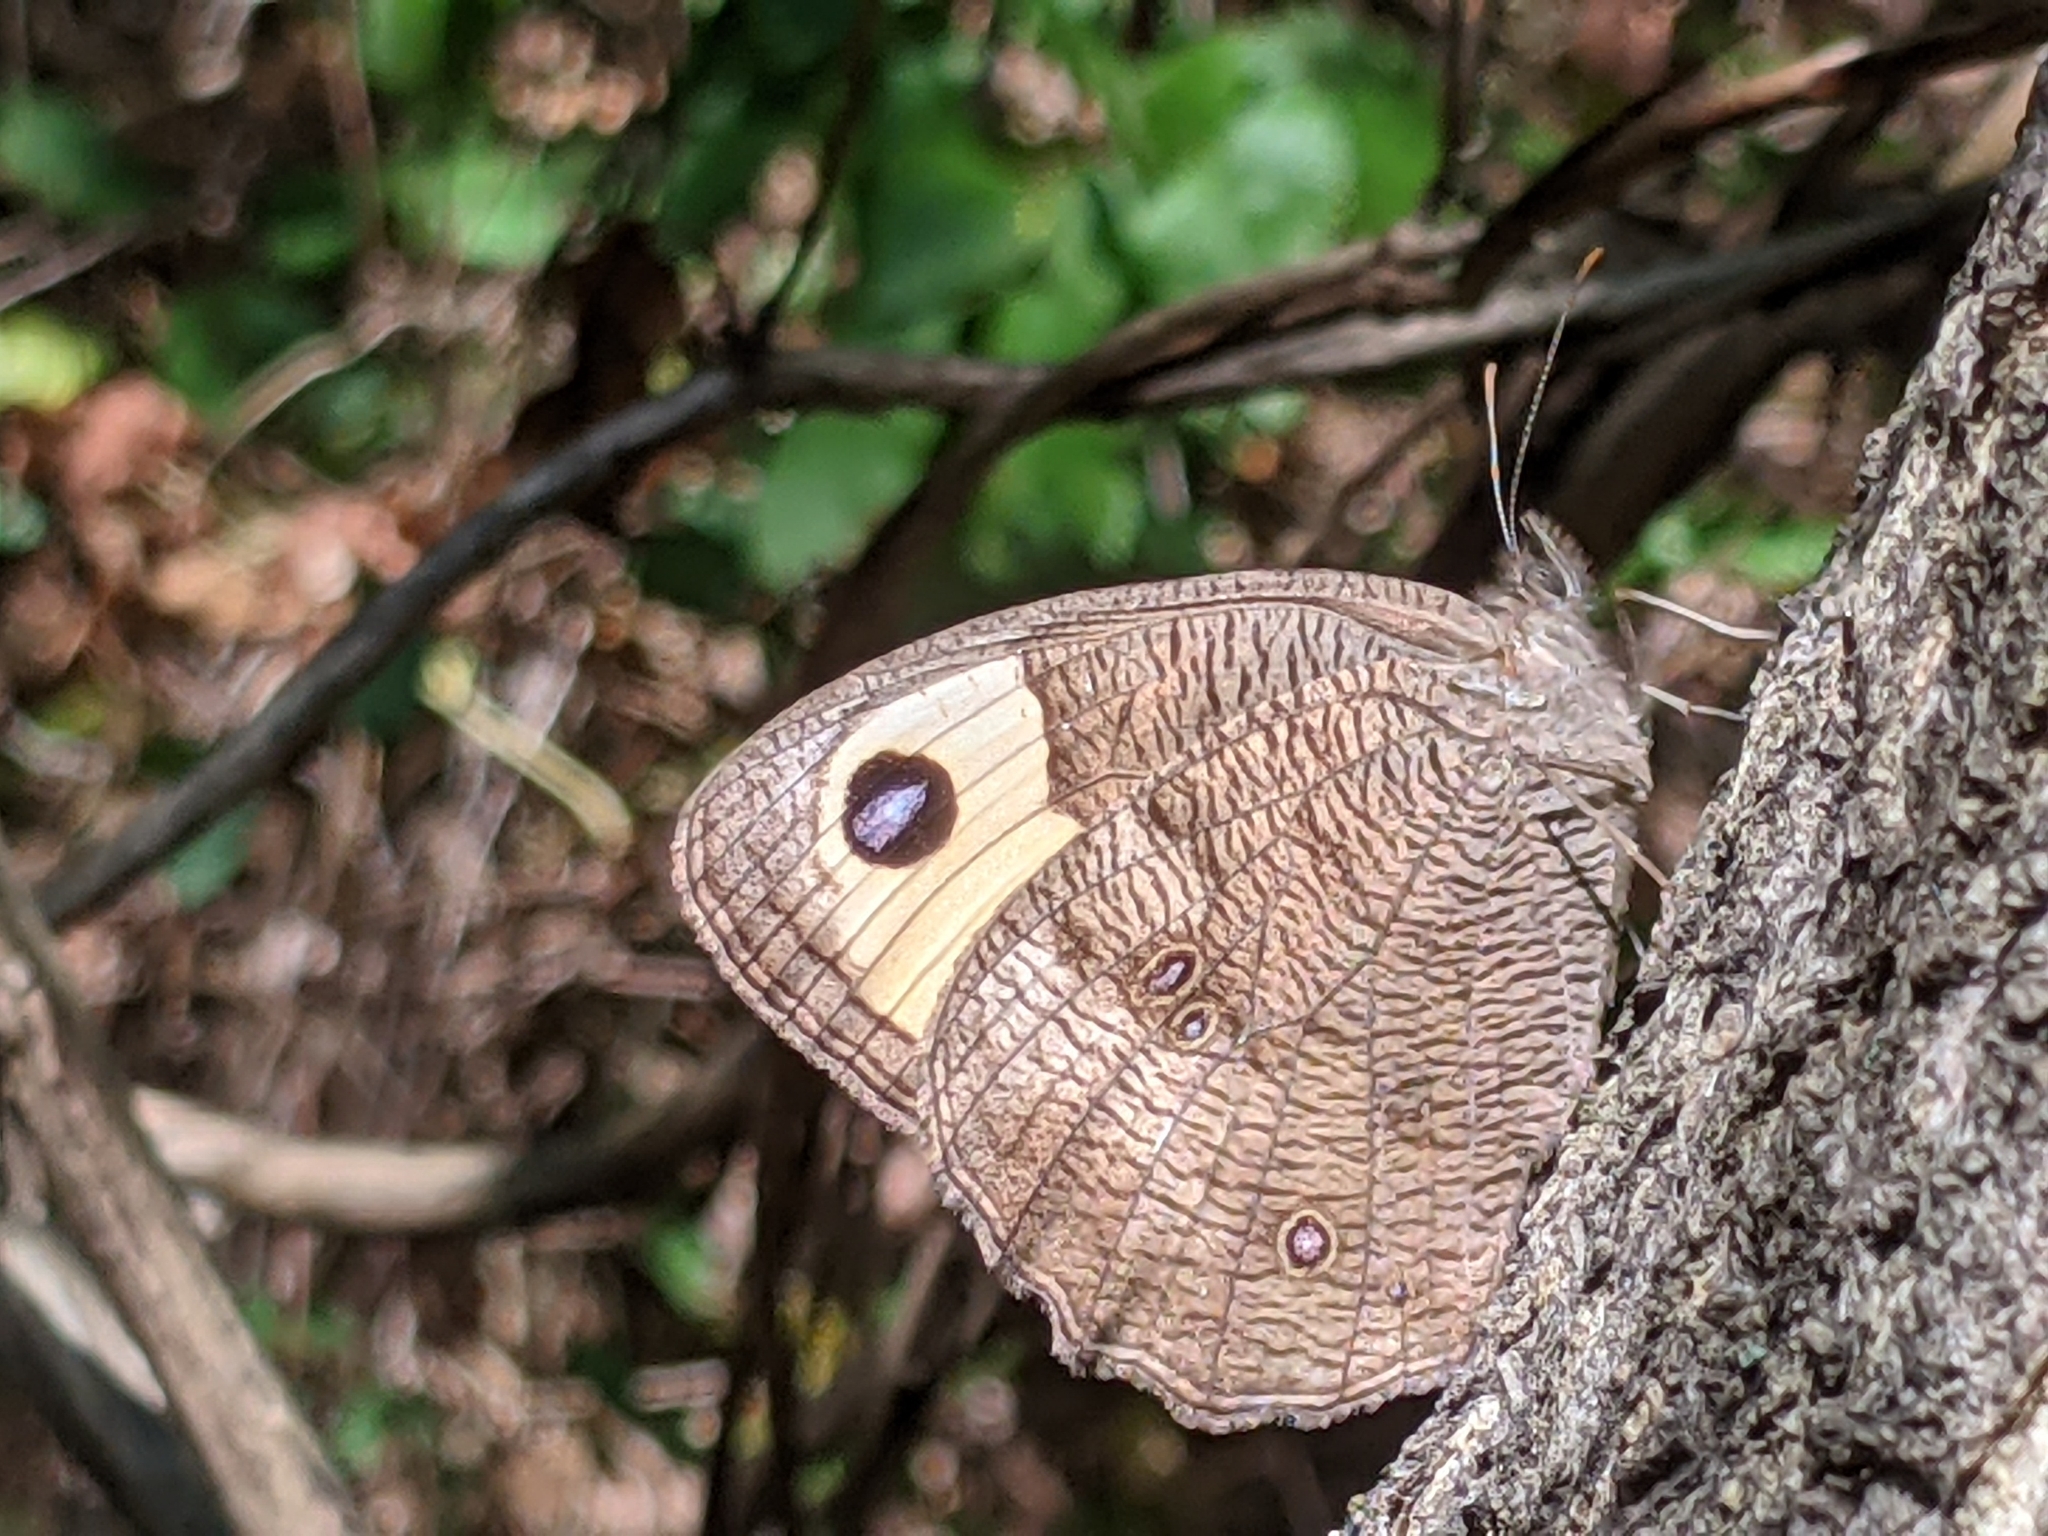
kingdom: Animalia
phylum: Arthropoda
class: Insecta
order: Lepidoptera
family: Nymphalidae
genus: Cercyonis
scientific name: Cercyonis pegala
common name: Common wood-nymph
